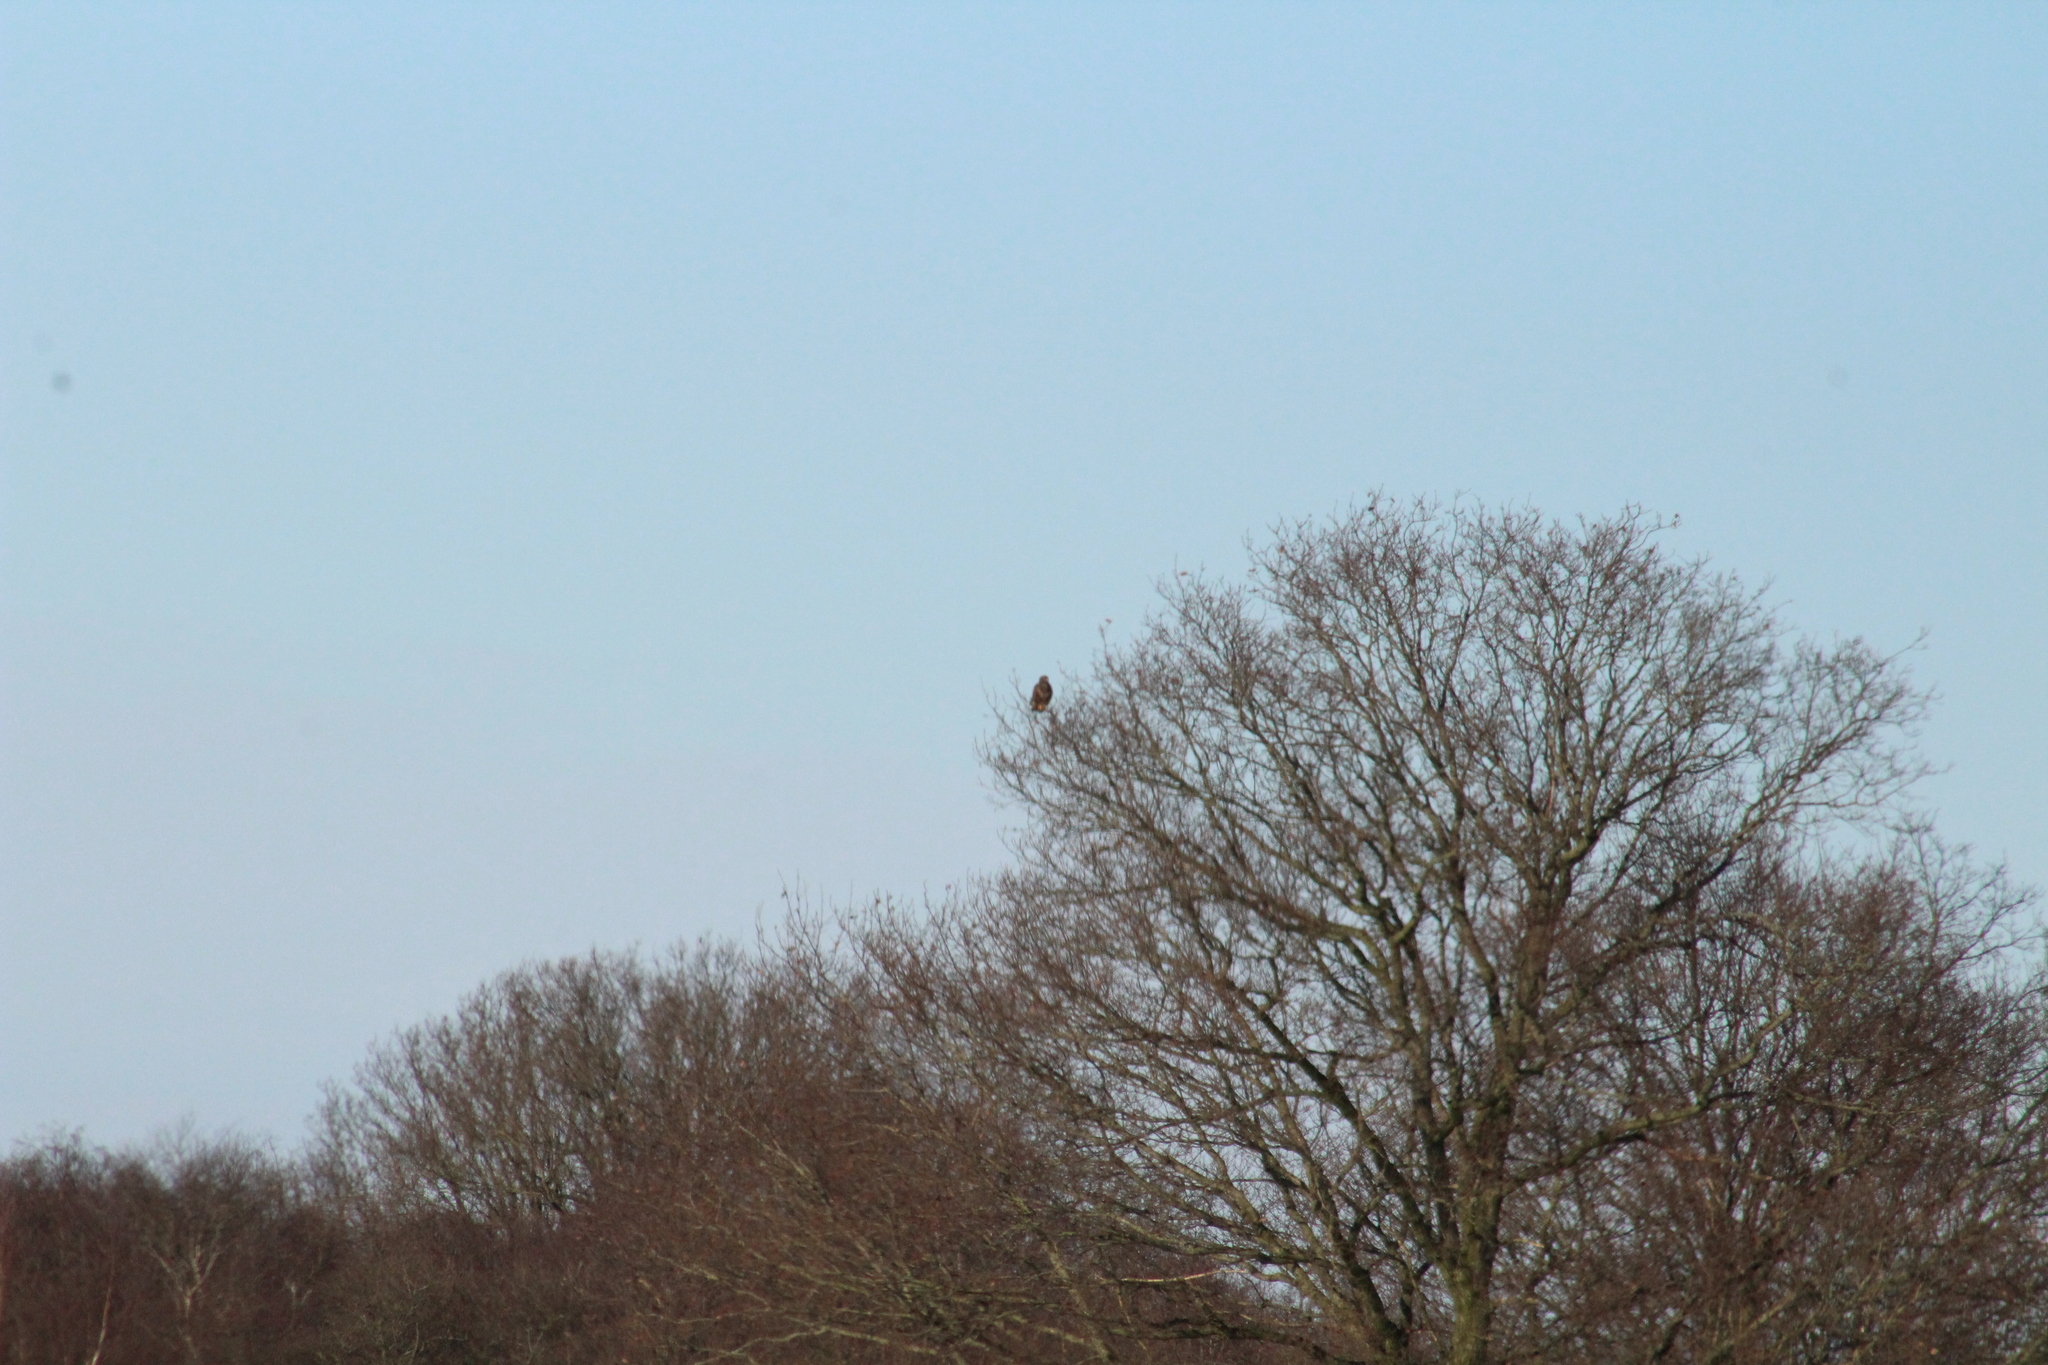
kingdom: Animalia
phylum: Chordata
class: Aves
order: Accipitriformes
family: Accipitridae
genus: Buteo
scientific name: Buteo buteo
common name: Common buzzard
